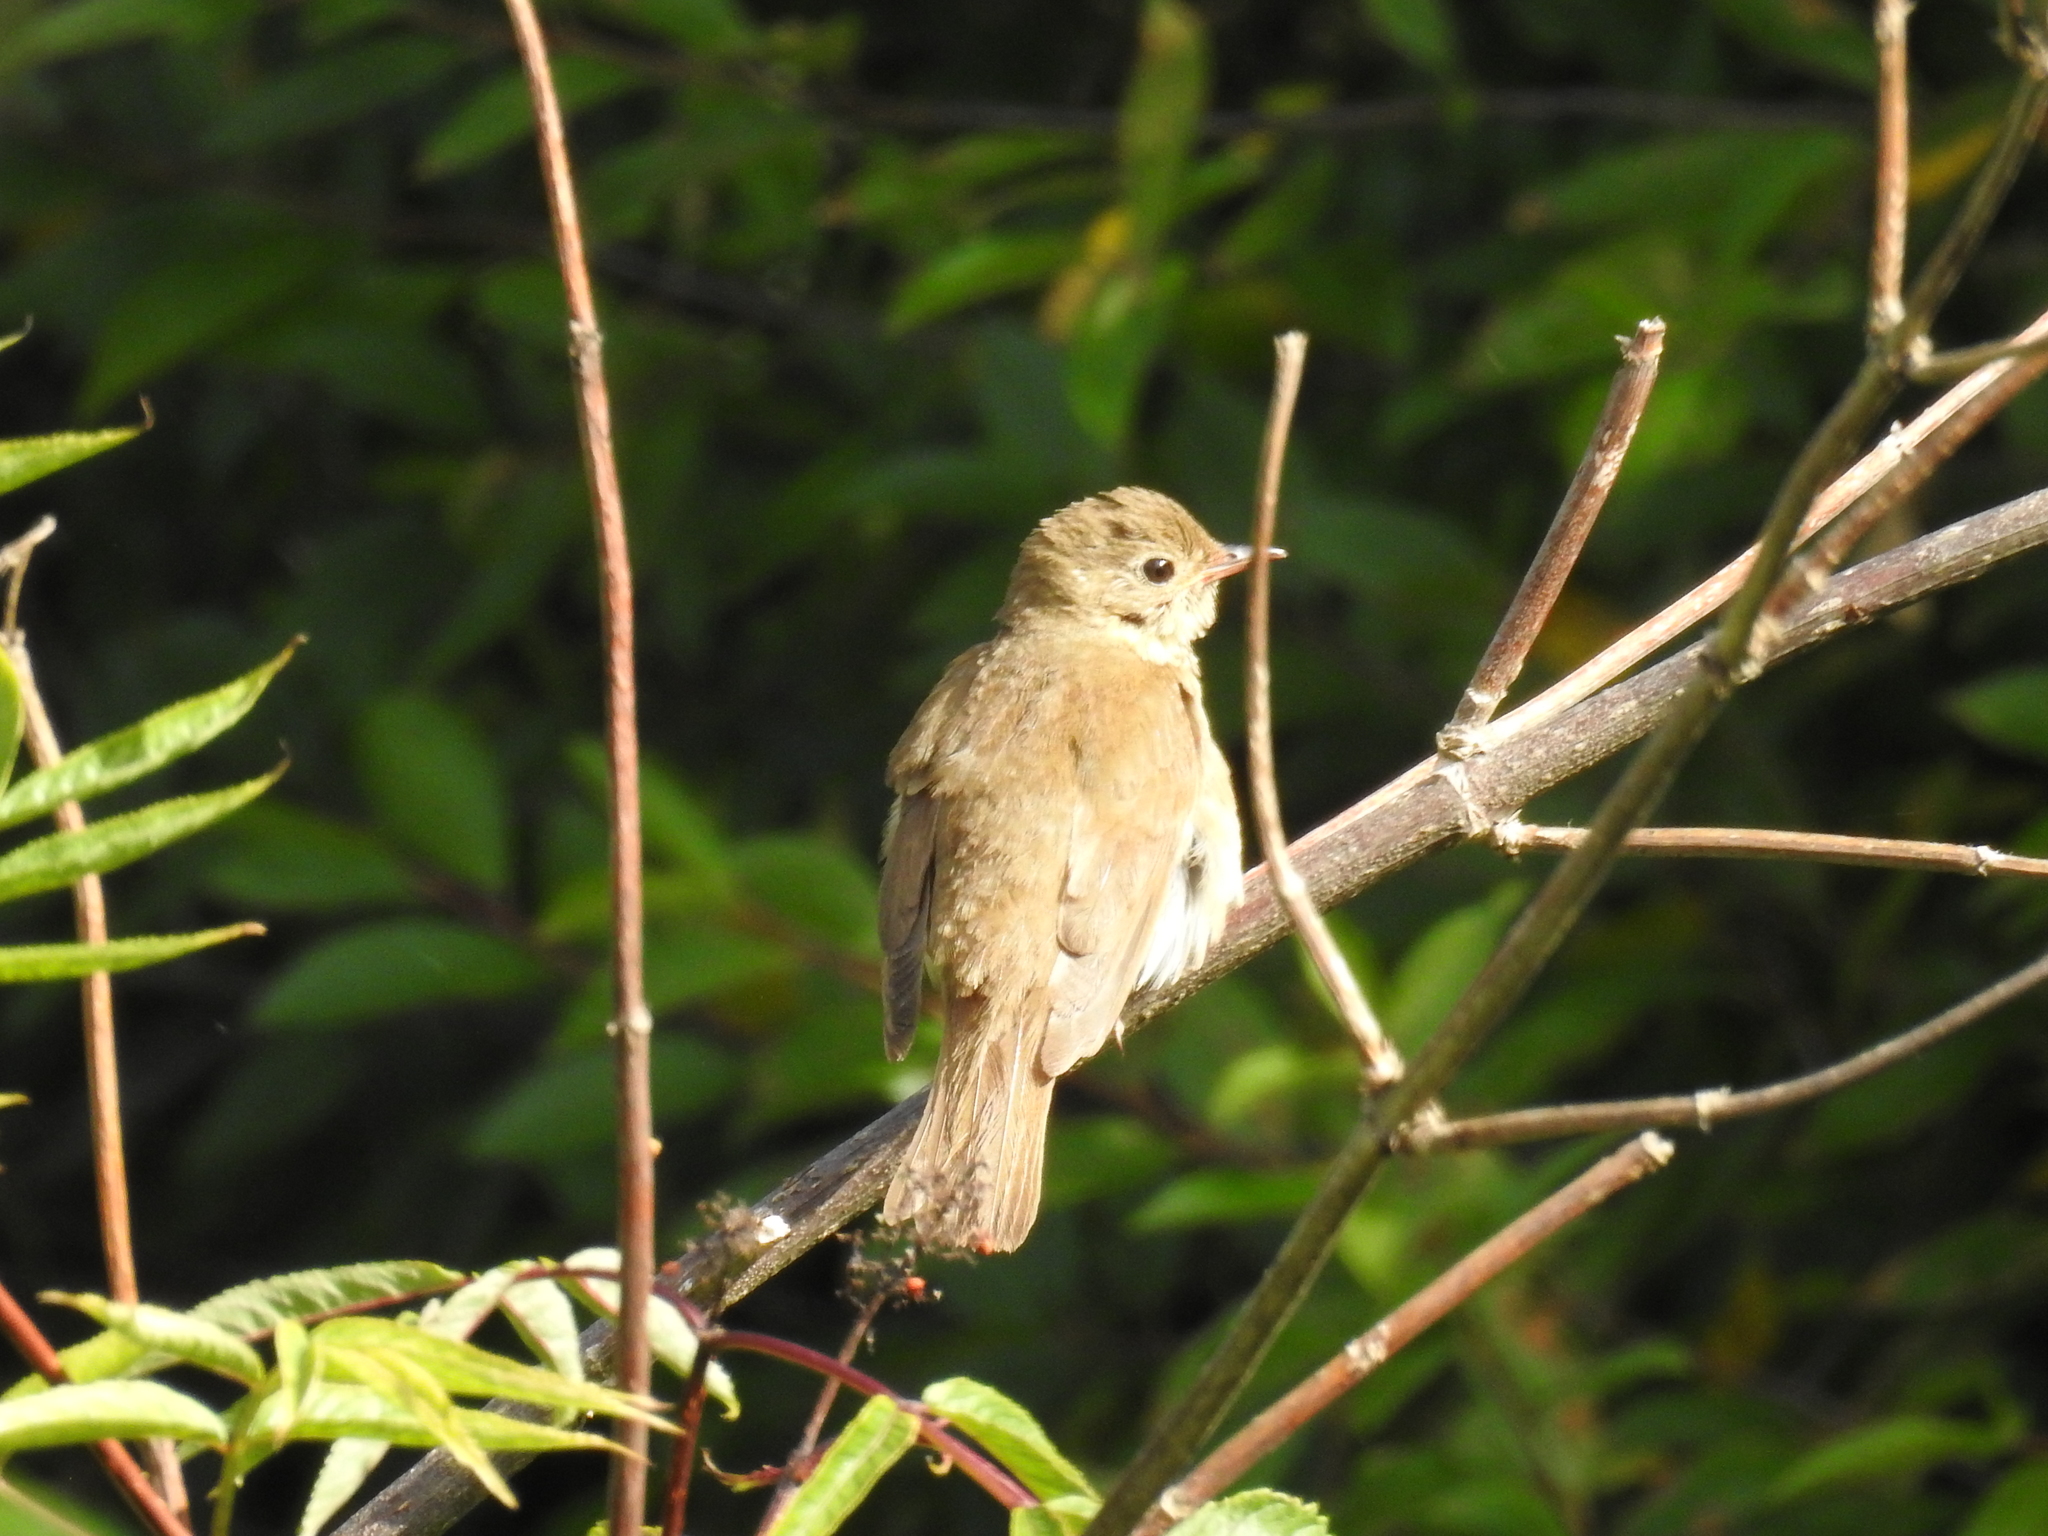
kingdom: Animalia
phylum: Chordata
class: Aves
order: Passeriformes
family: Turdidae
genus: Catharus
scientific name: Catharus ustulatus
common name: Swainson's thrush
